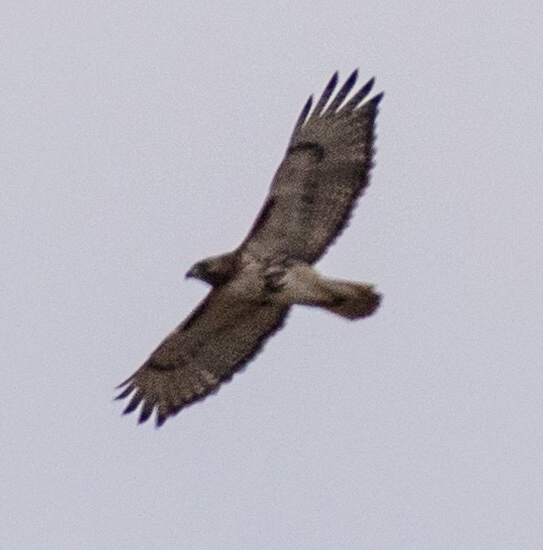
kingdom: Animalia
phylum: Chordata
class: Aves
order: Accipitriformes
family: Accipitridae
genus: Buteo
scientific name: Buteo jamaicensis
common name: Red-tailed hawk
